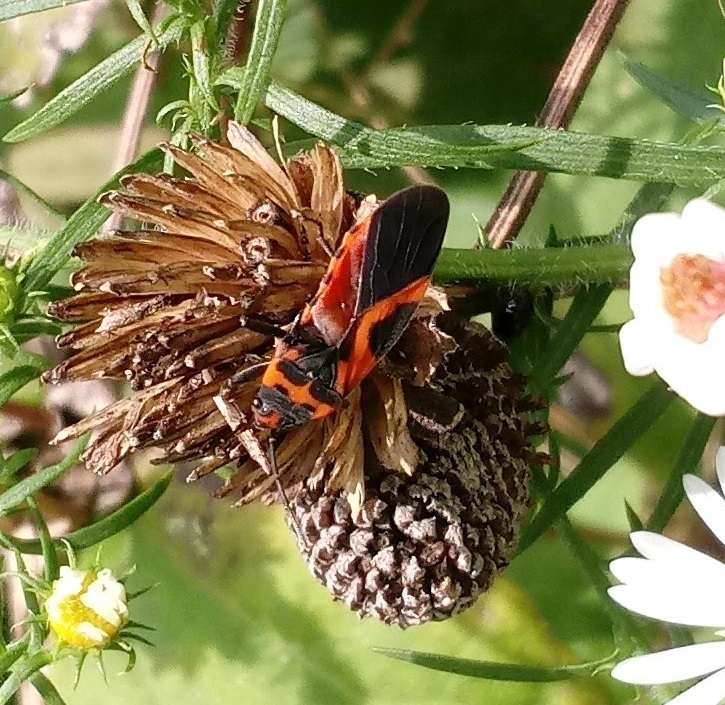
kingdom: Animalia
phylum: Arthropoda
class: Insecta
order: Hemiptera
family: Lygaeidae
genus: Lygaeus
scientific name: Lygaeus turcicus
